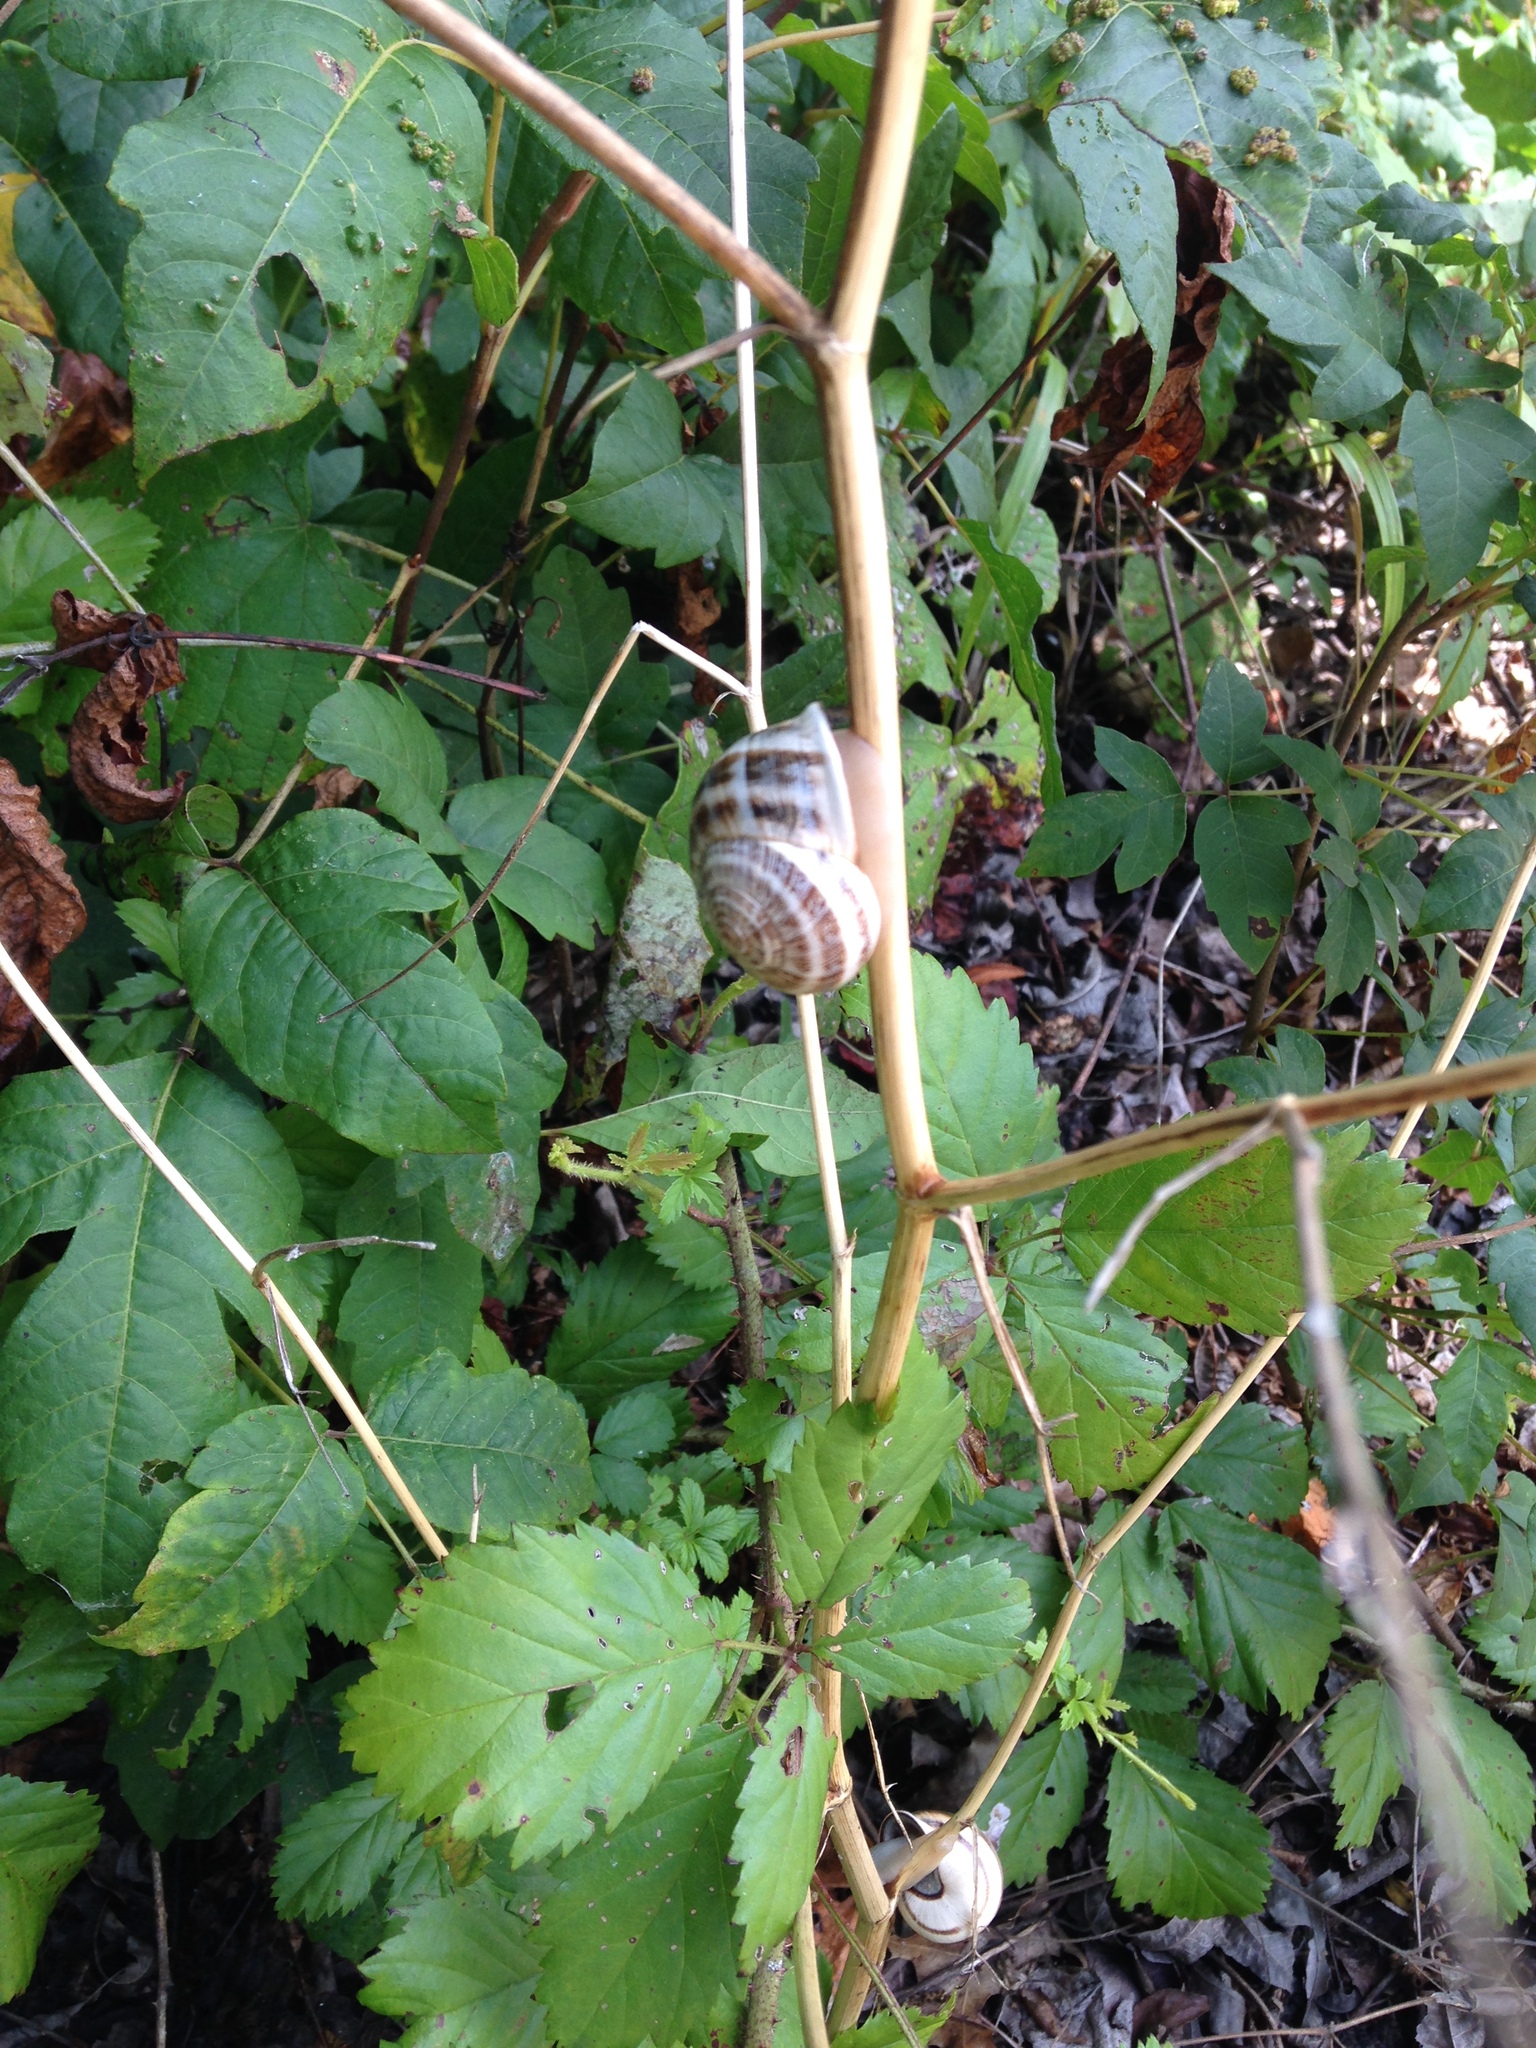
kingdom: Animalia
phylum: Mollusca
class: Gastropoda
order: Stylommatophora
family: Helicidae
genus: Otala
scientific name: Otala lactea
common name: Milk snail
